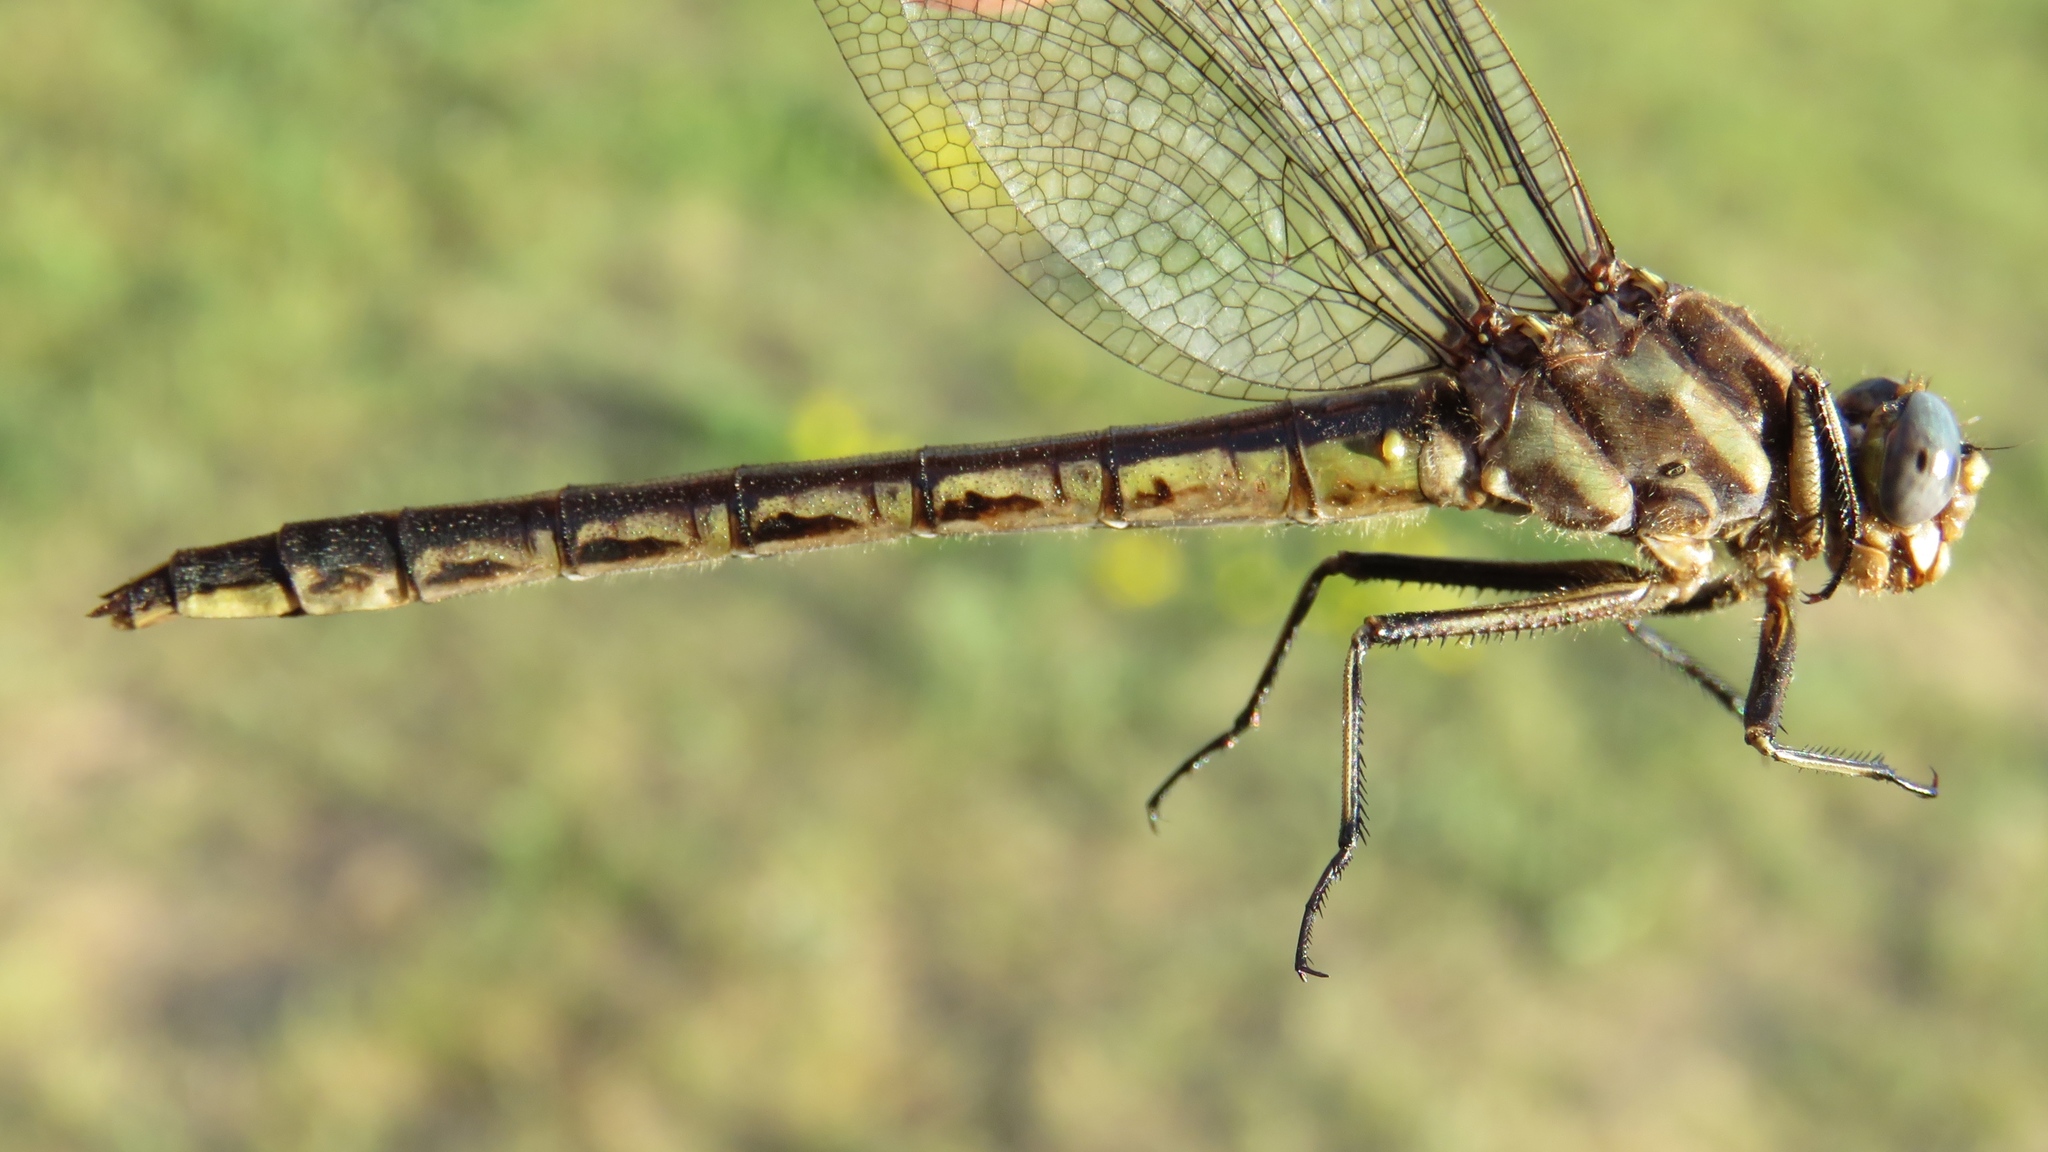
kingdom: Animalia
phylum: Arthropoda
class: Insecta
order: Odonata
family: Gomphidae
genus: Phanogomphus
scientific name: Phanogomphus spicatus
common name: Dusky clubtail
